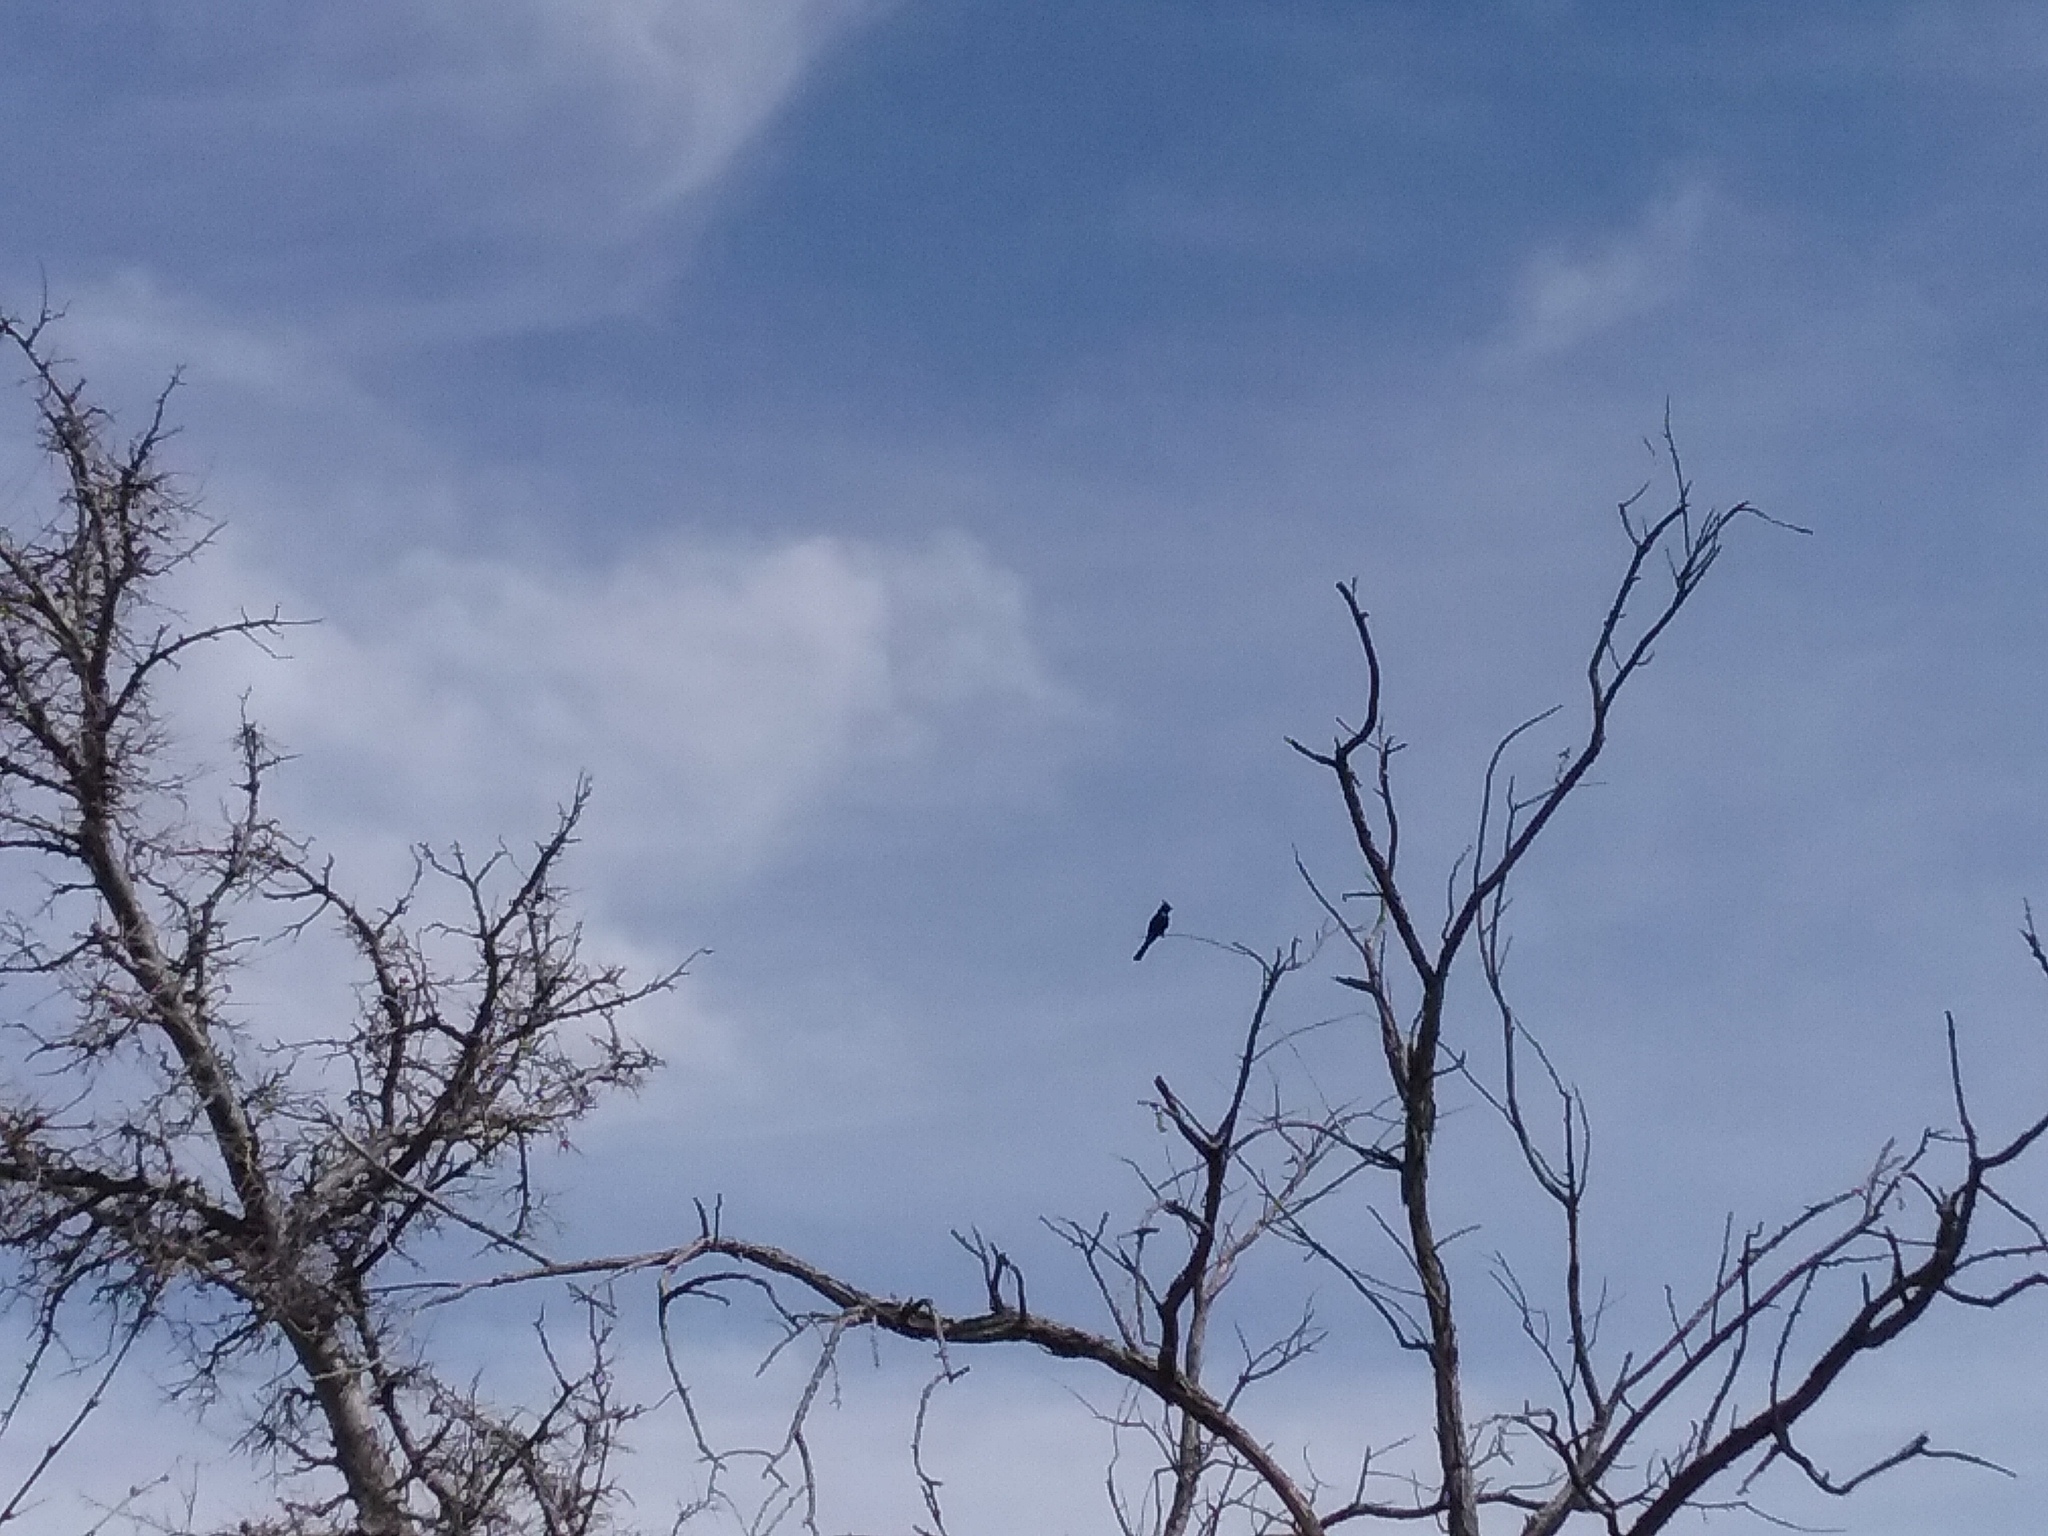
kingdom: Animalia
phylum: Chordata
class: Aves
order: Passeriformes
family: Ptilogonatidae
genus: Phainopepla
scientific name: Phainopepla nitens
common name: Phainopepla
